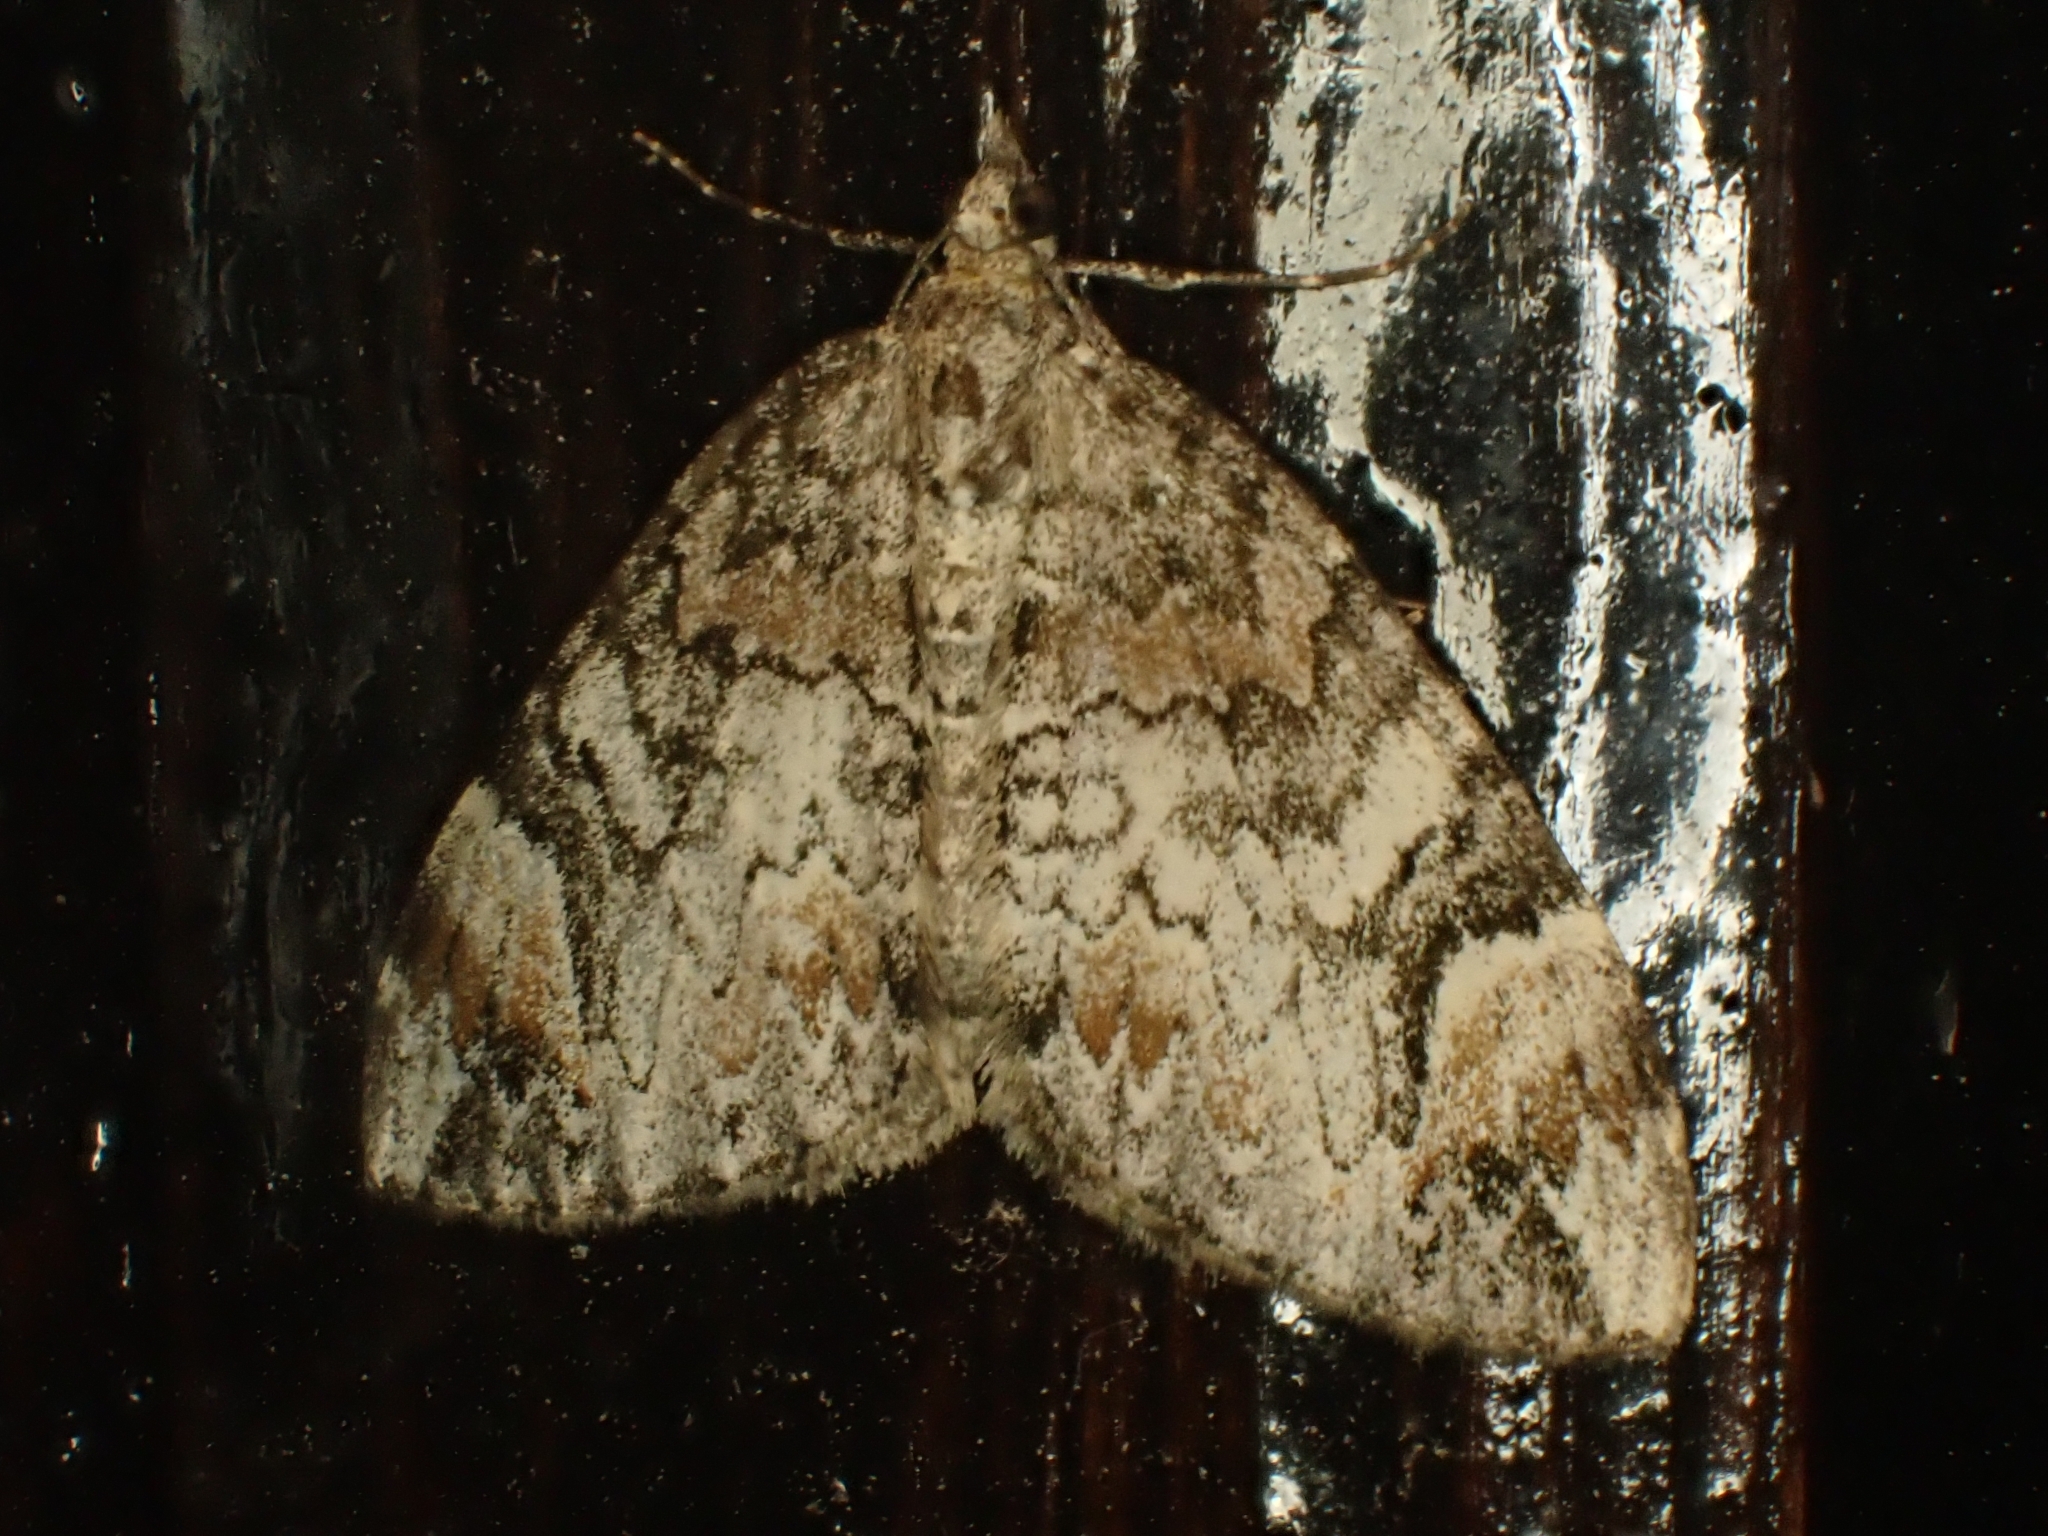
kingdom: Animalia
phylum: Arthropoda
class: Insecta
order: Lepidoptera
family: Geometridae
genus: Dysstroma
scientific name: Dysstroma citrata
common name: Dark marbled carpet
